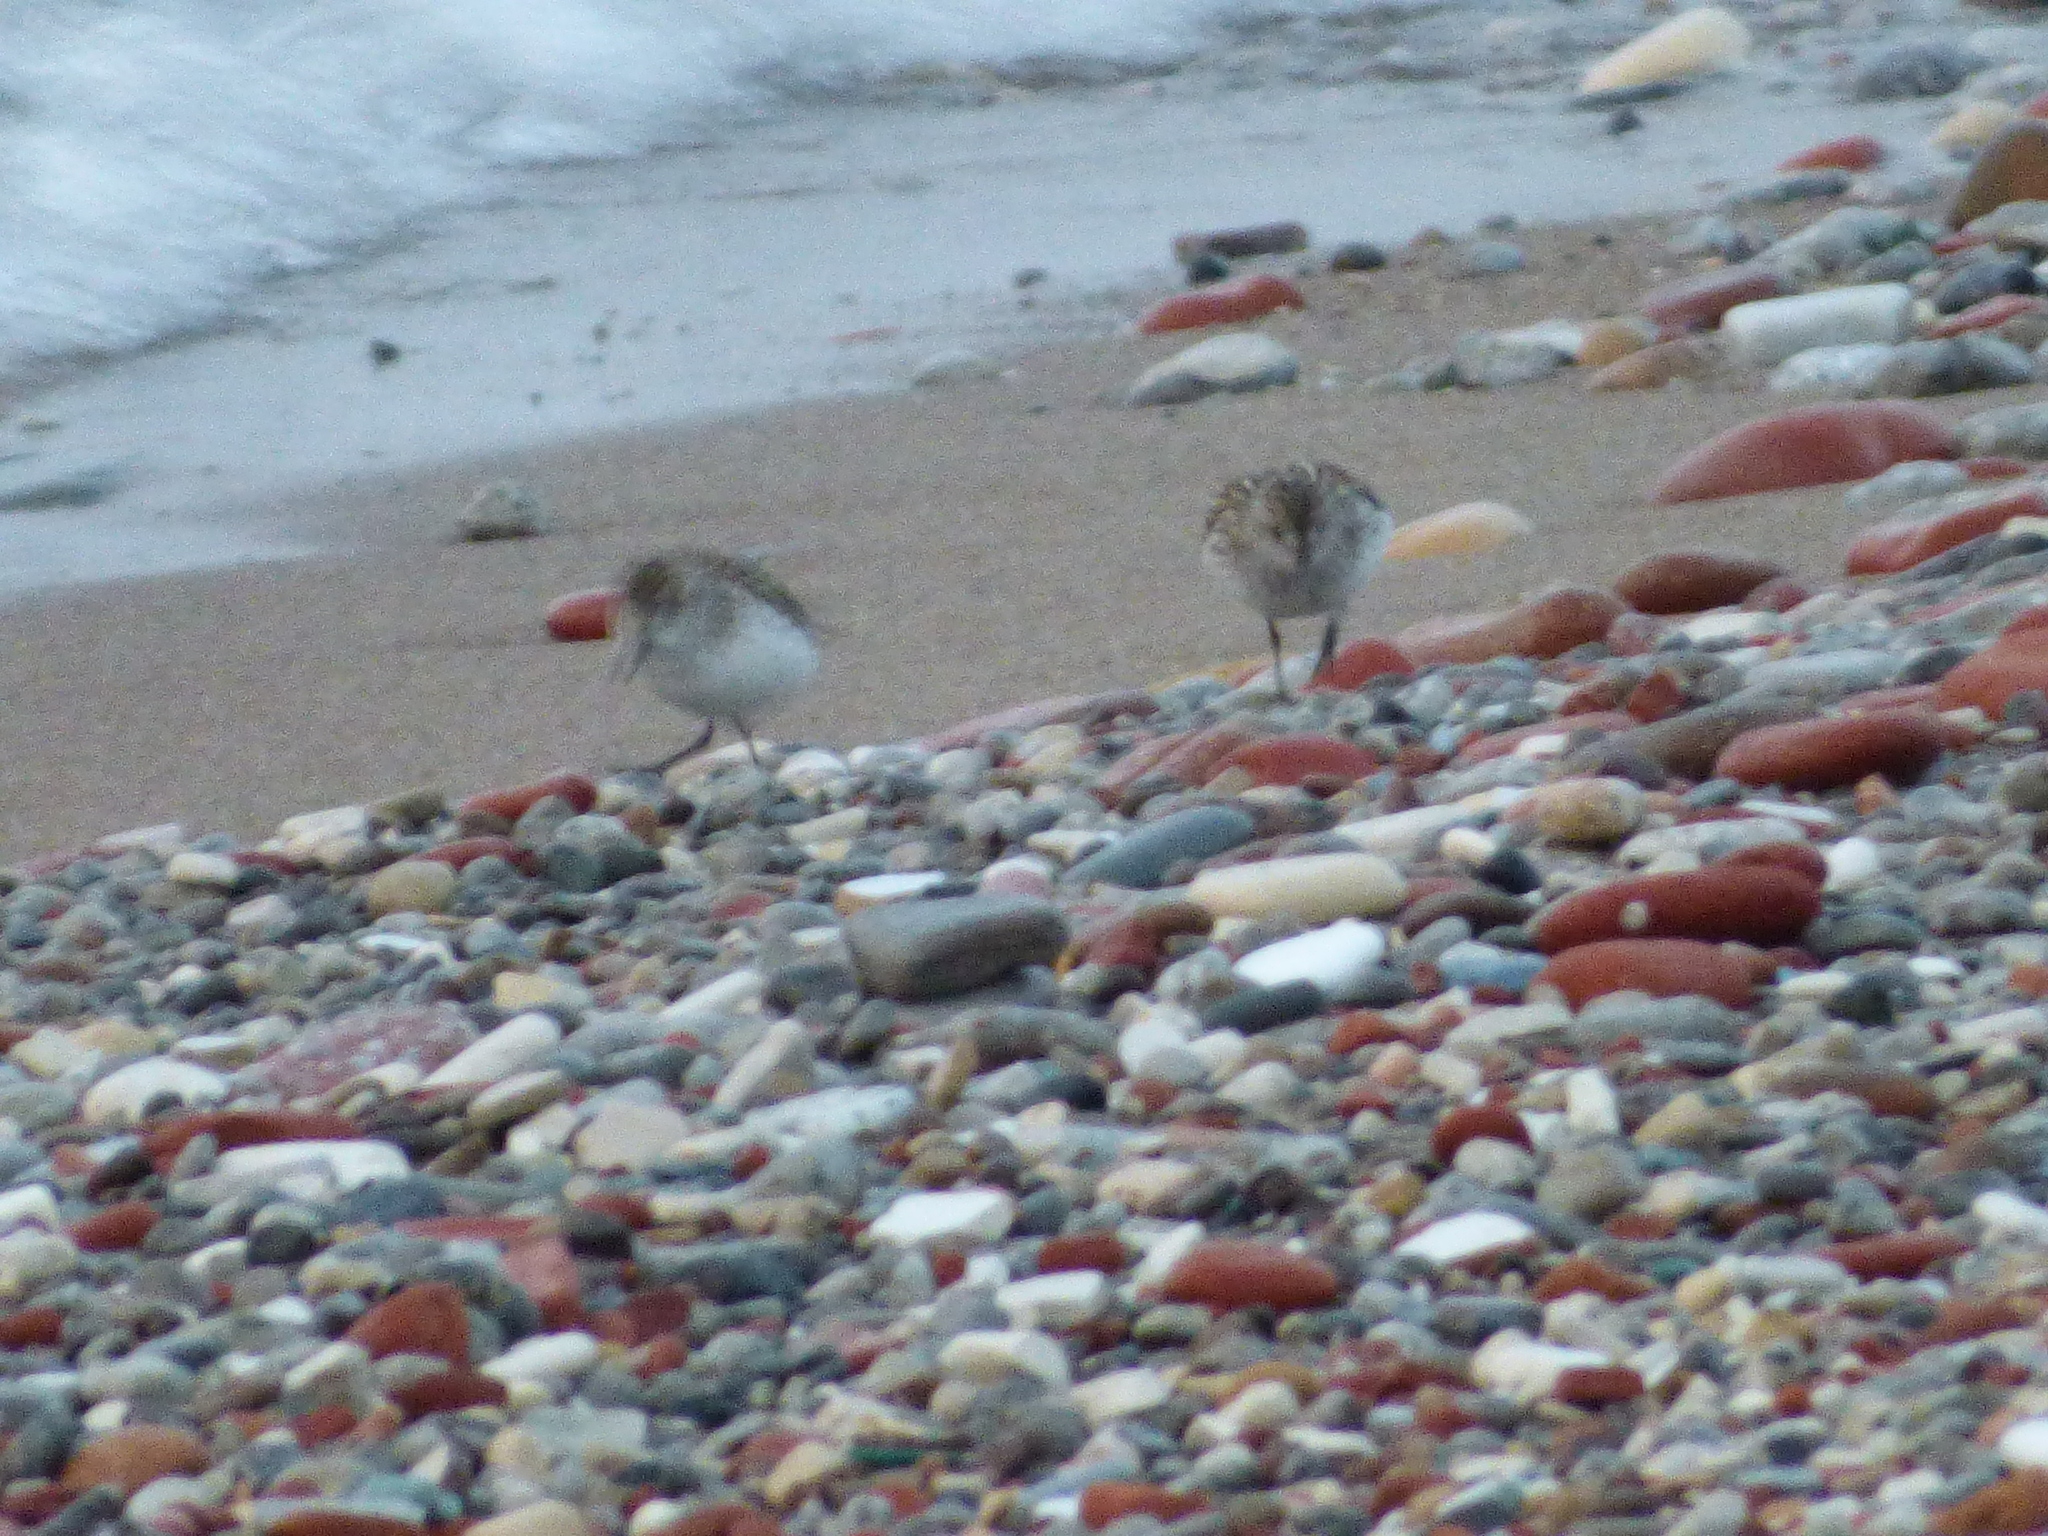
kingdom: Animalia
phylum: Chordata
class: Aves
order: Charadriiformes
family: Scolopacidae
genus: Calidris
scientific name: Calidris pusilla
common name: Semipalmated sandpiper
